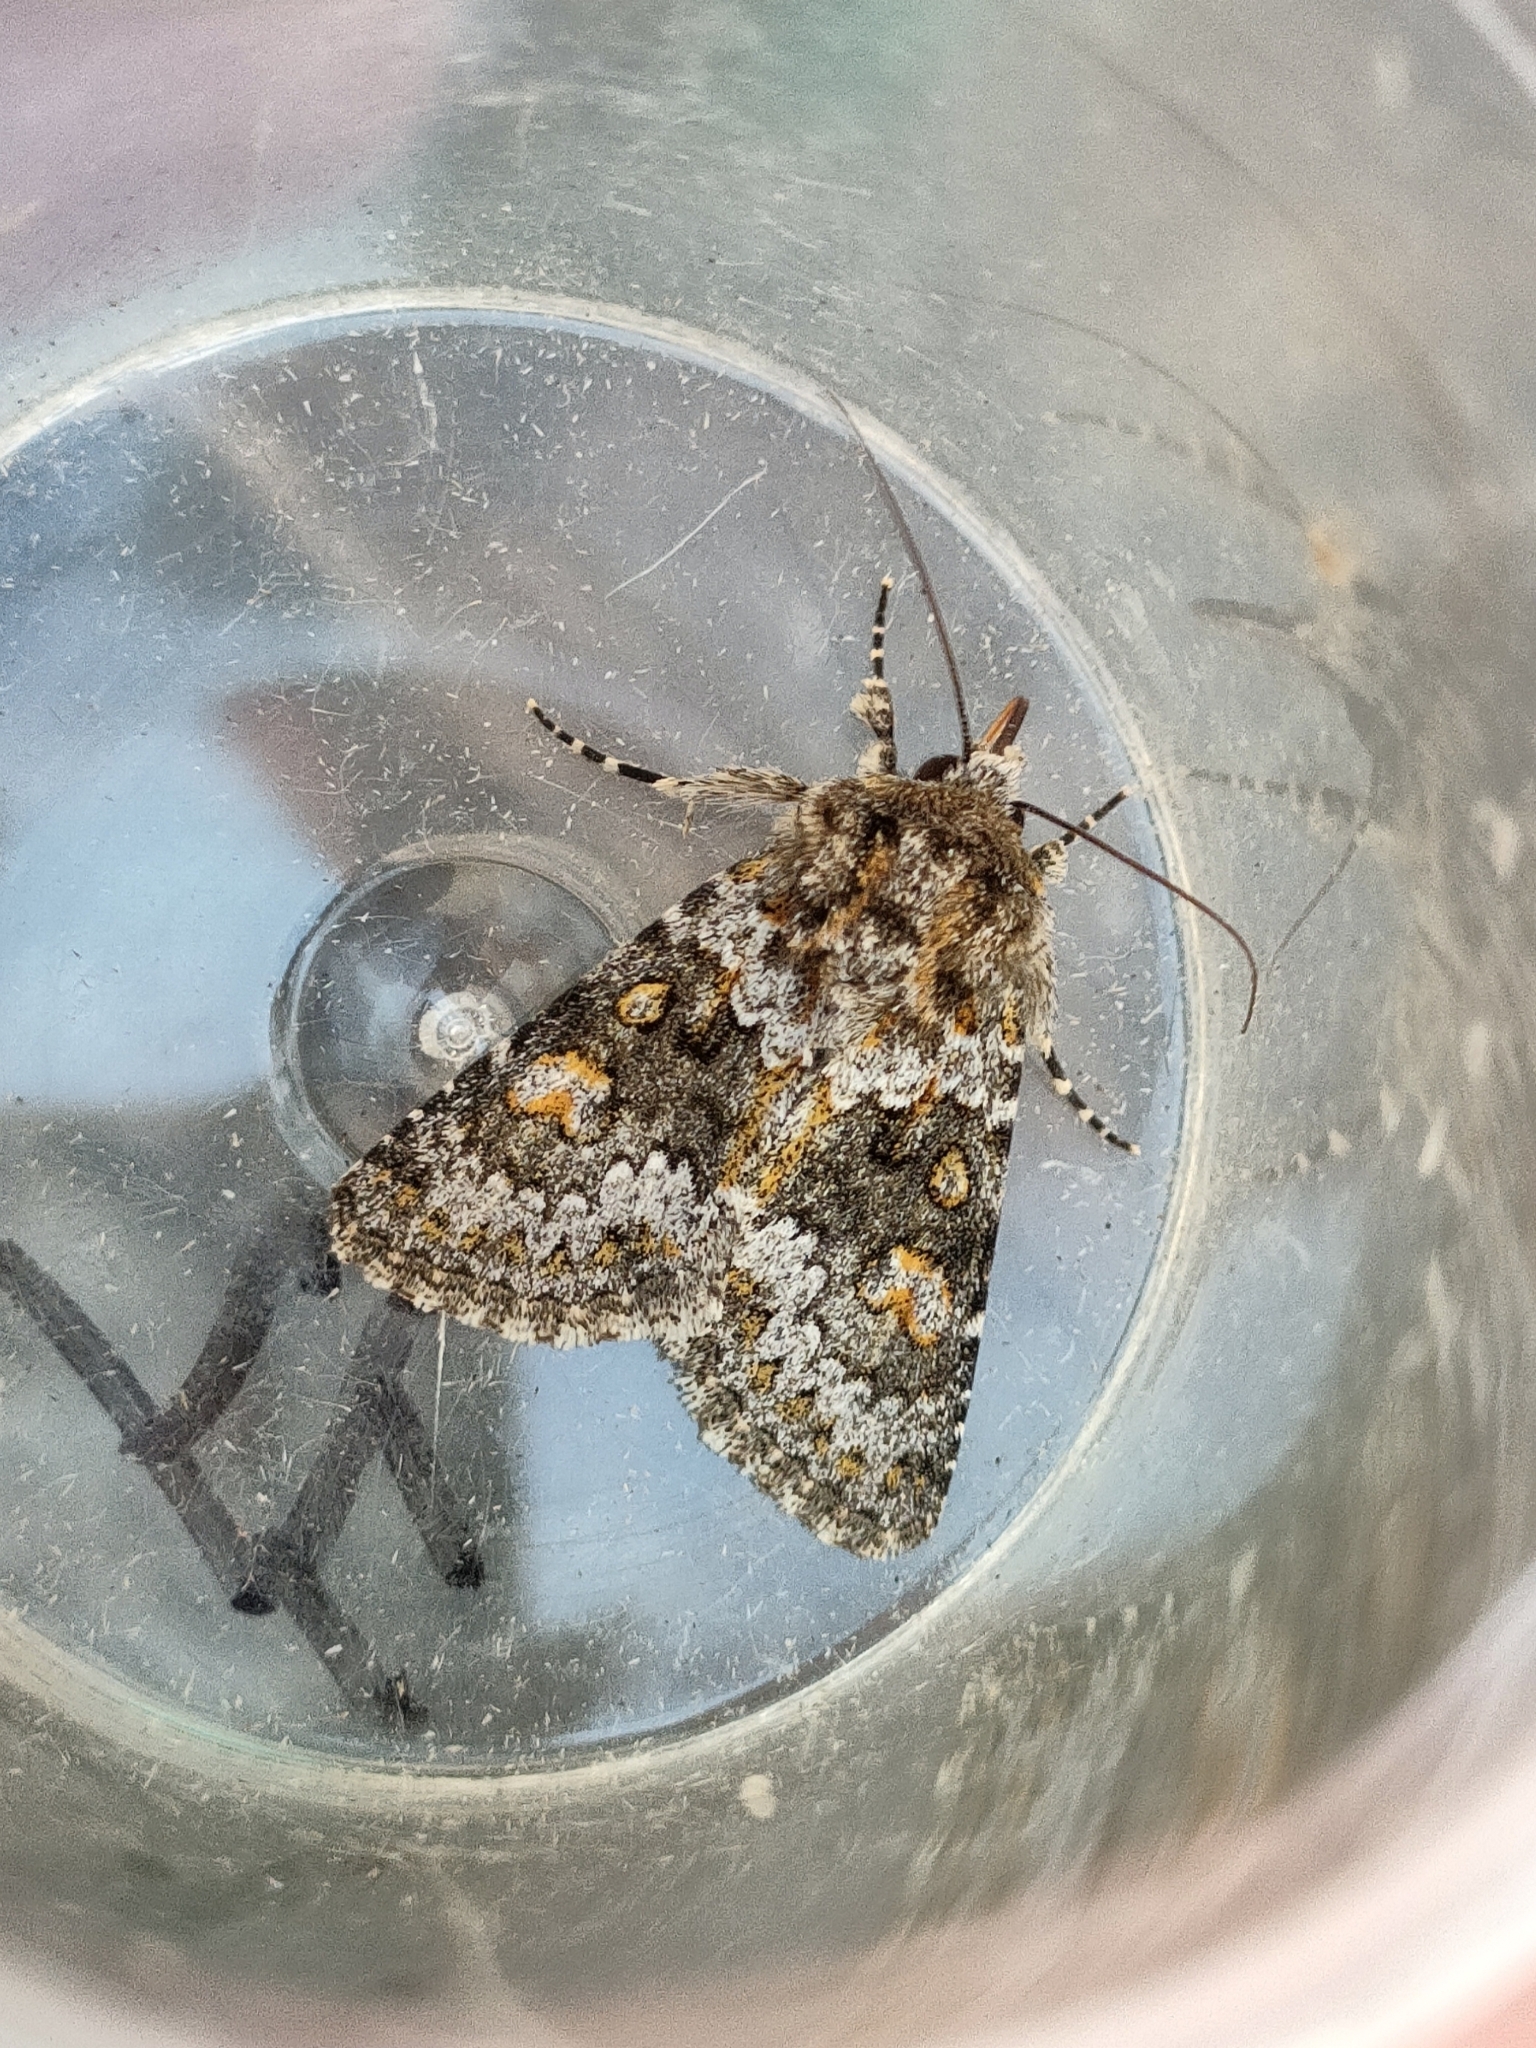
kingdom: Animalia
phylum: Arthropoda
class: Insecta
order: Lepidoptera
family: Noctuidae
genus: Hecatera
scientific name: Hecatera dysodea
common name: Small ranunculus
